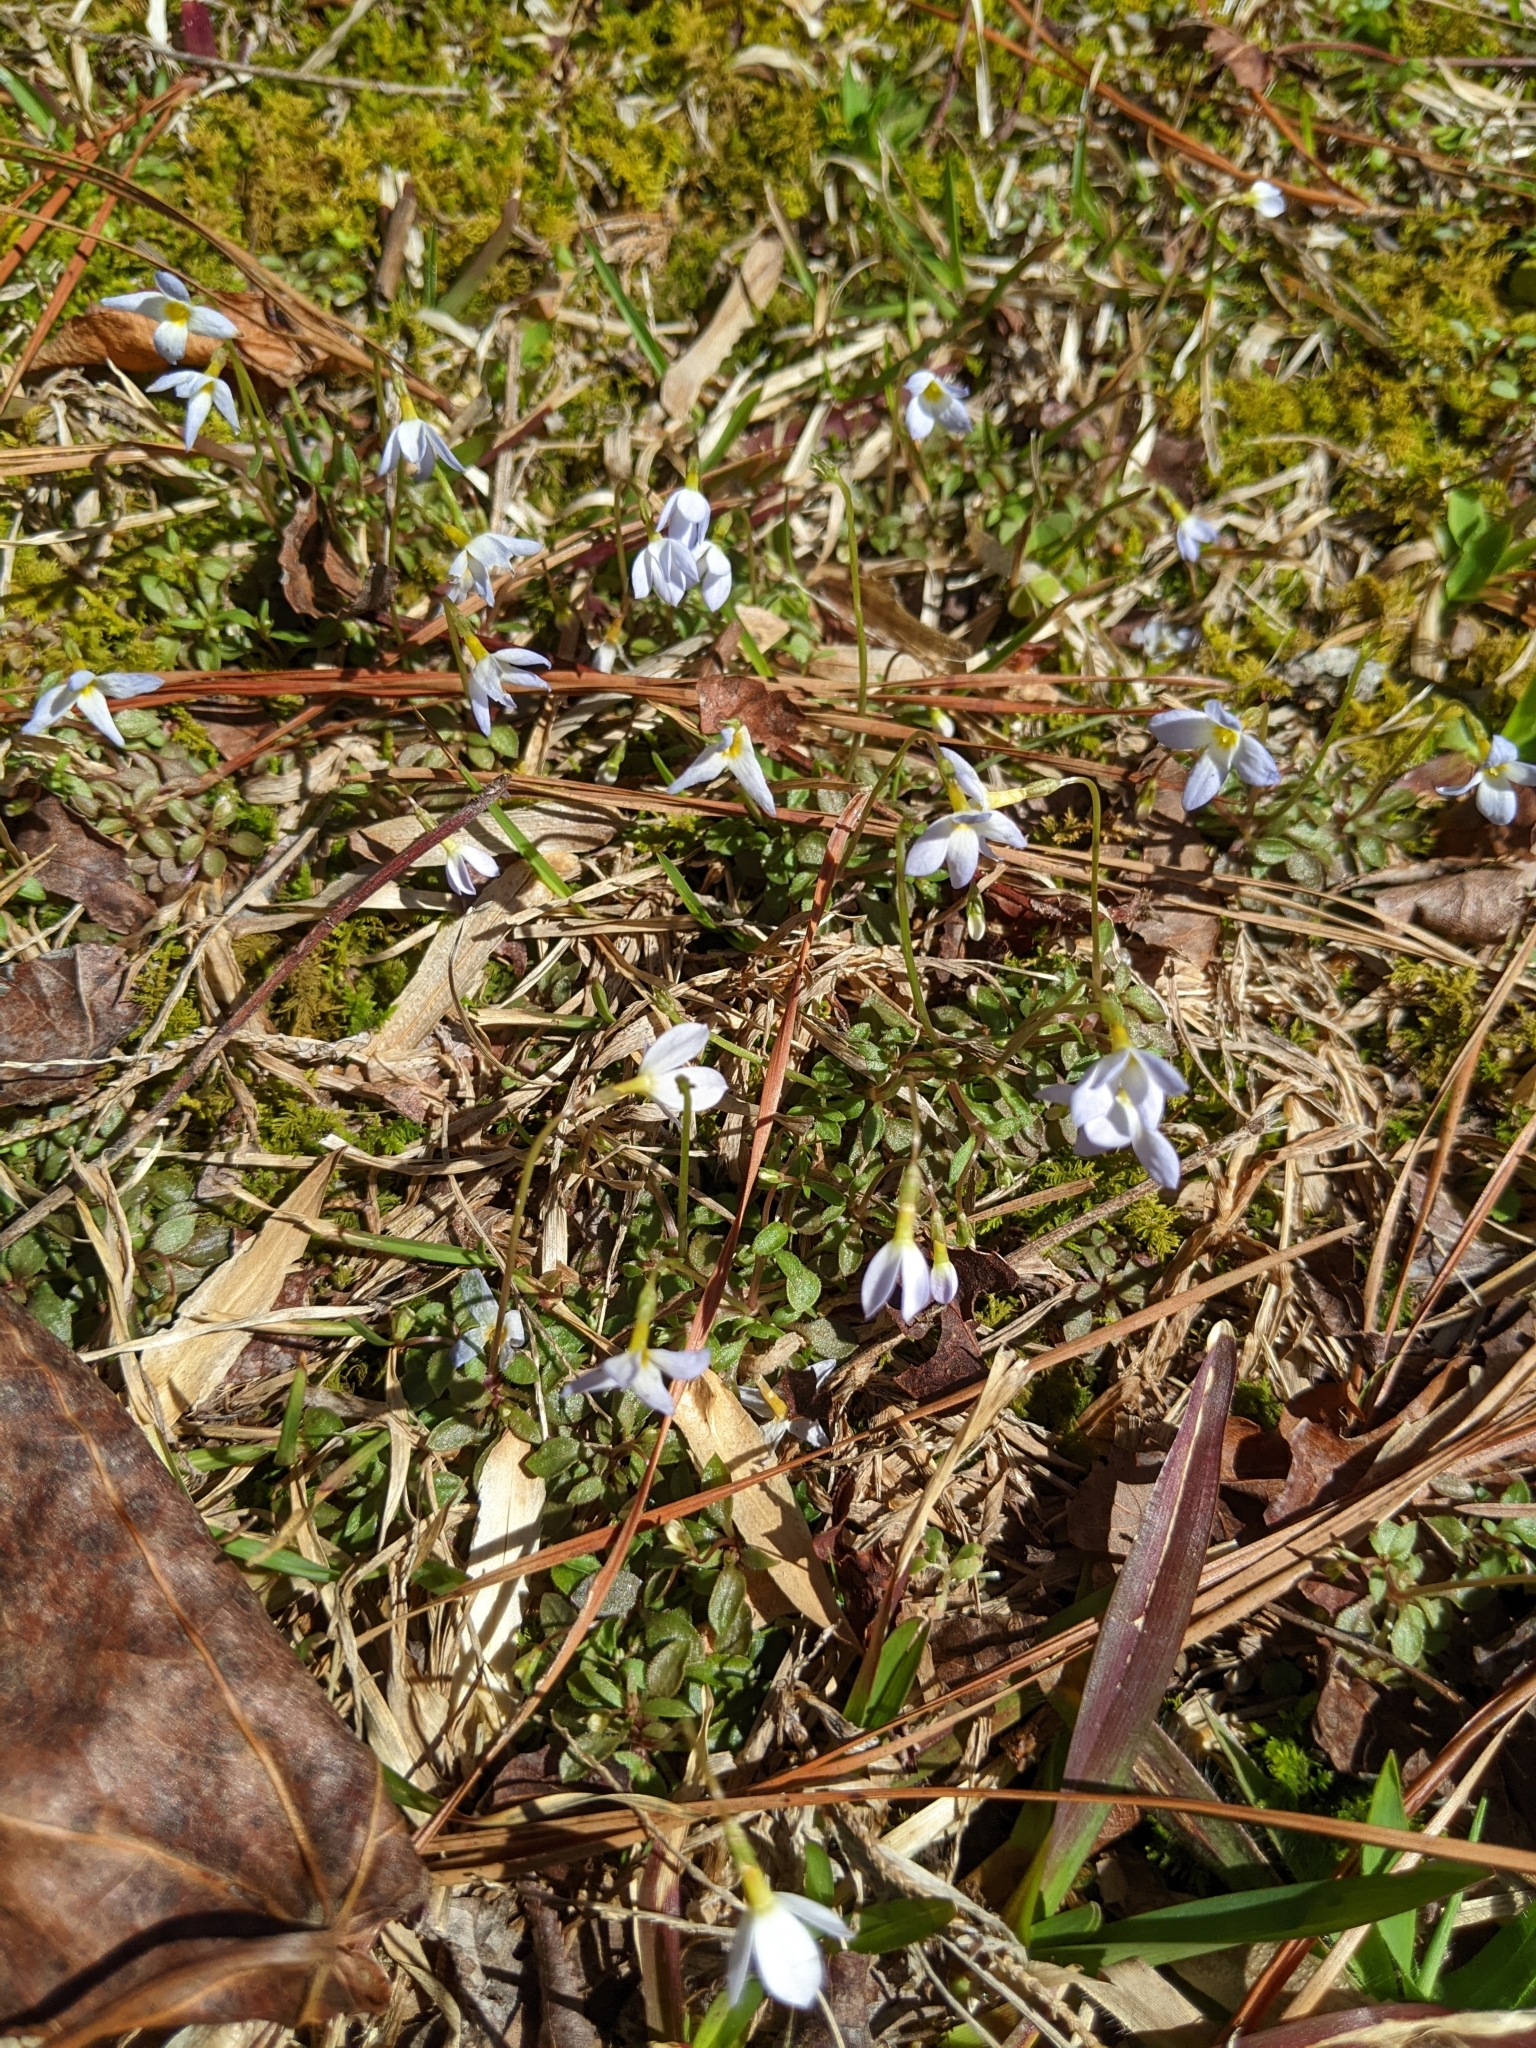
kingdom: Plantae
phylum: Tracheophyta
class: Magnoliopsida
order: Gentianales
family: Rubiaceae
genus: Houstonia
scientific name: Houstonia caerulea
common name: Bluets
